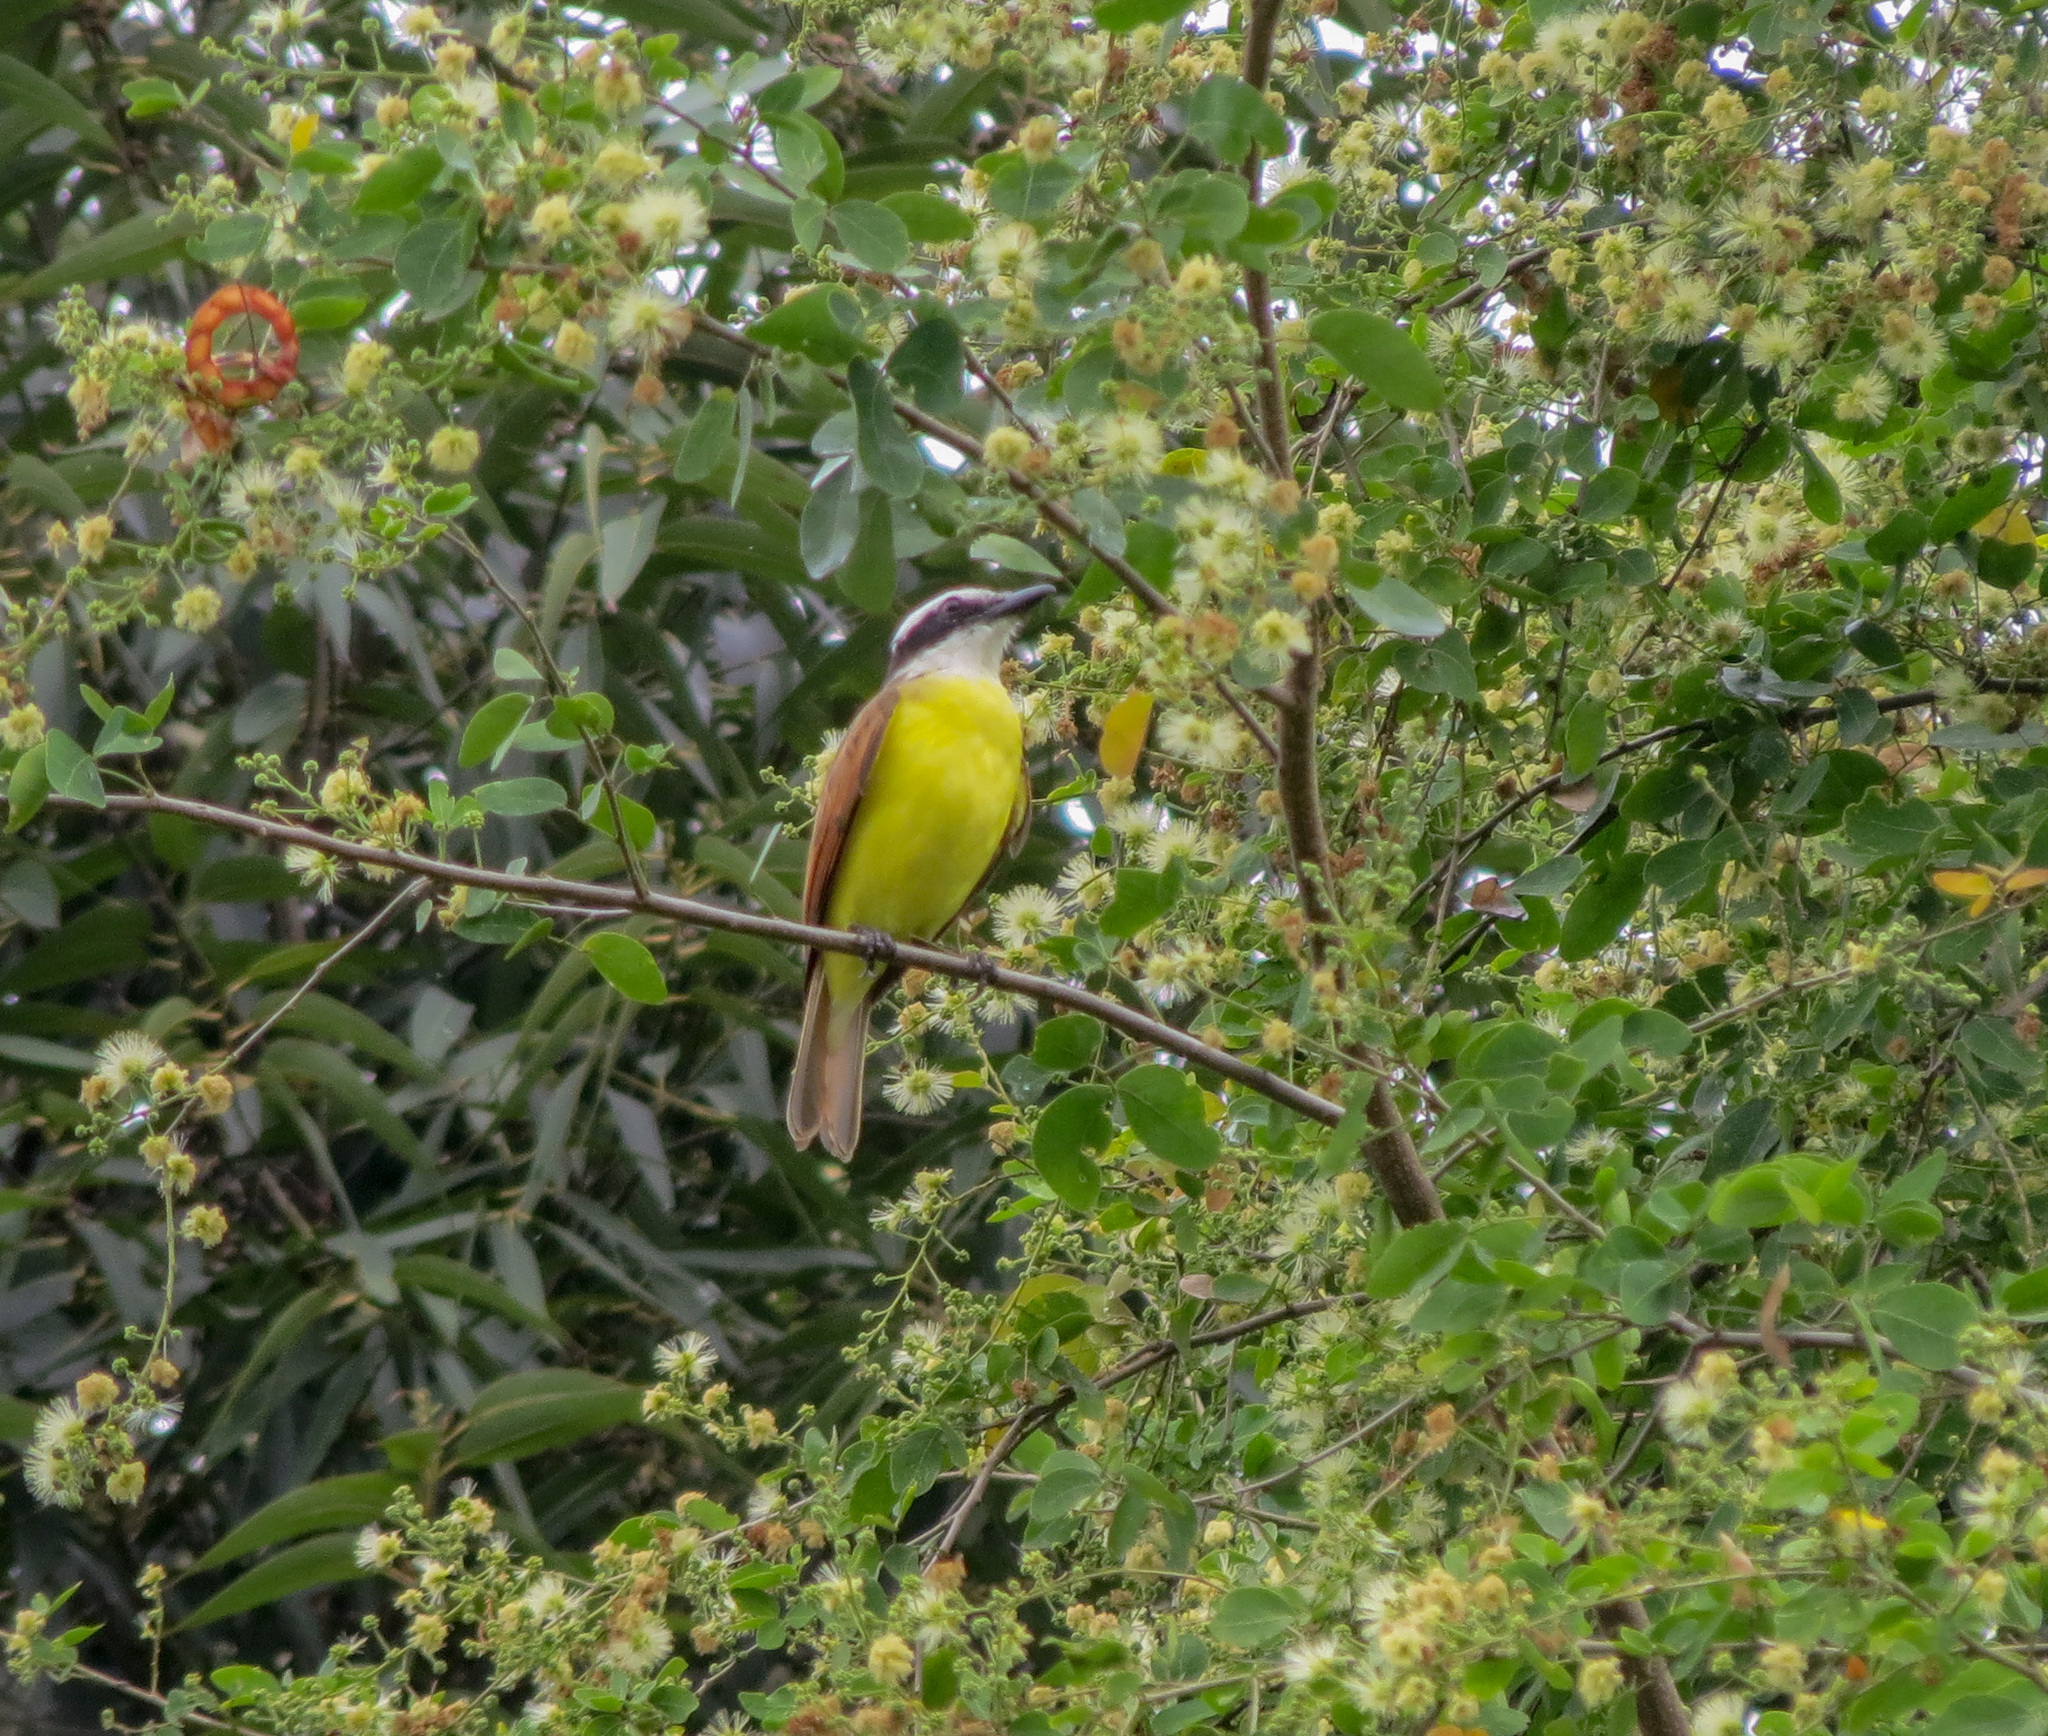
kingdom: Animalia
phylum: Chordata
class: Aves
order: Passeriformes
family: Tyrannidae
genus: Pitangus
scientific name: Pitangus sulphuratus
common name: Great kiskadee
